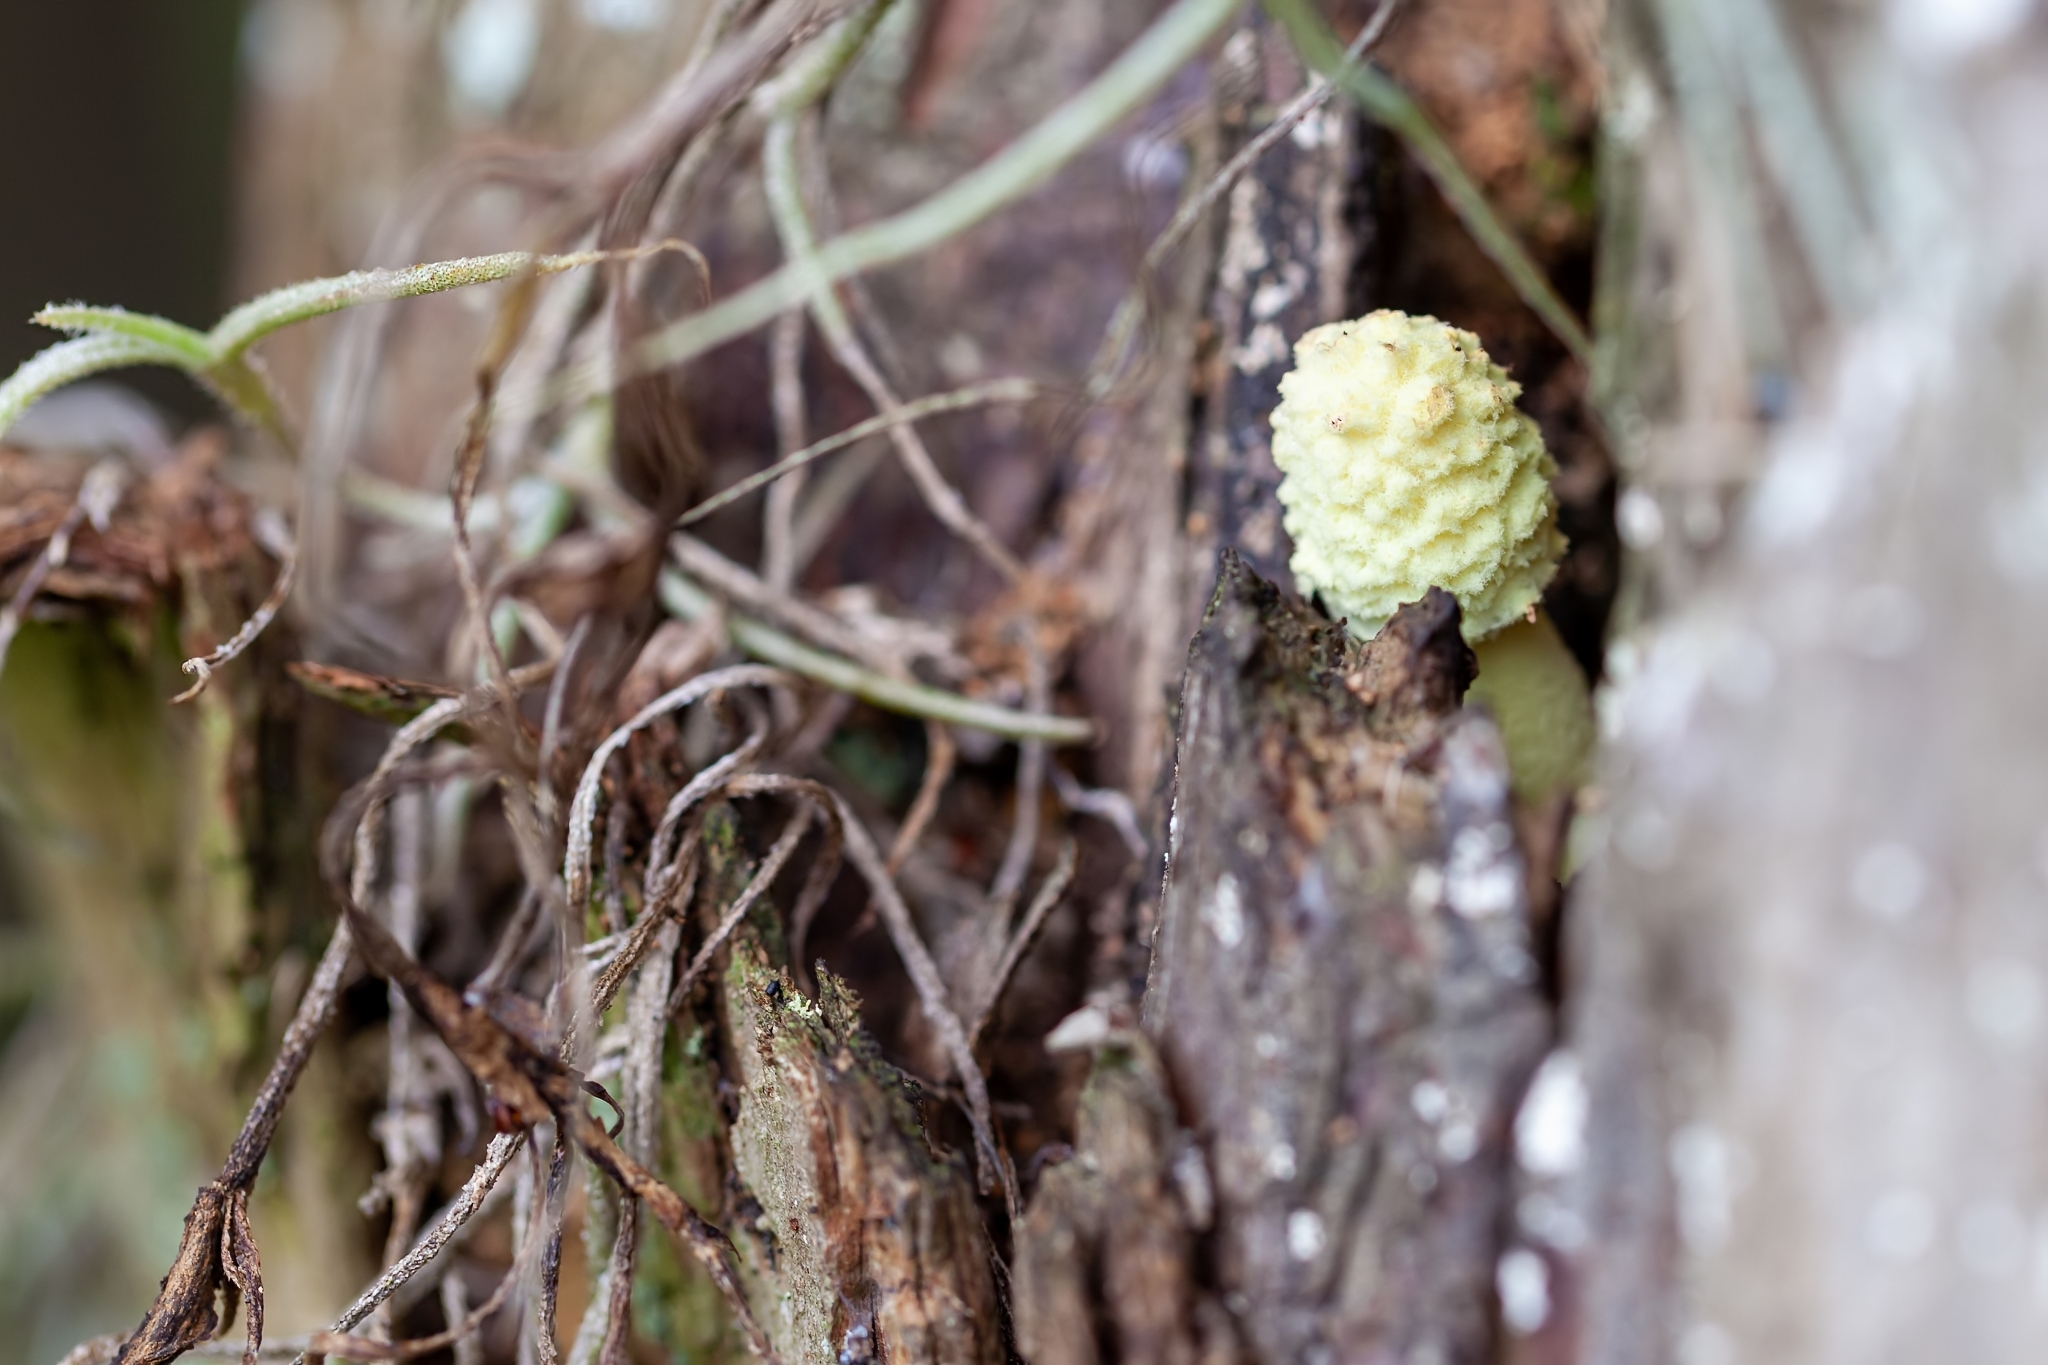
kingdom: Fungi
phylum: Basidiomycota
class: Agaricomycetes
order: Agaricales
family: Agaricaceae
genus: Leucocoprinus
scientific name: Leucocoprinus birnbaumii
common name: Plantpot dapperling
